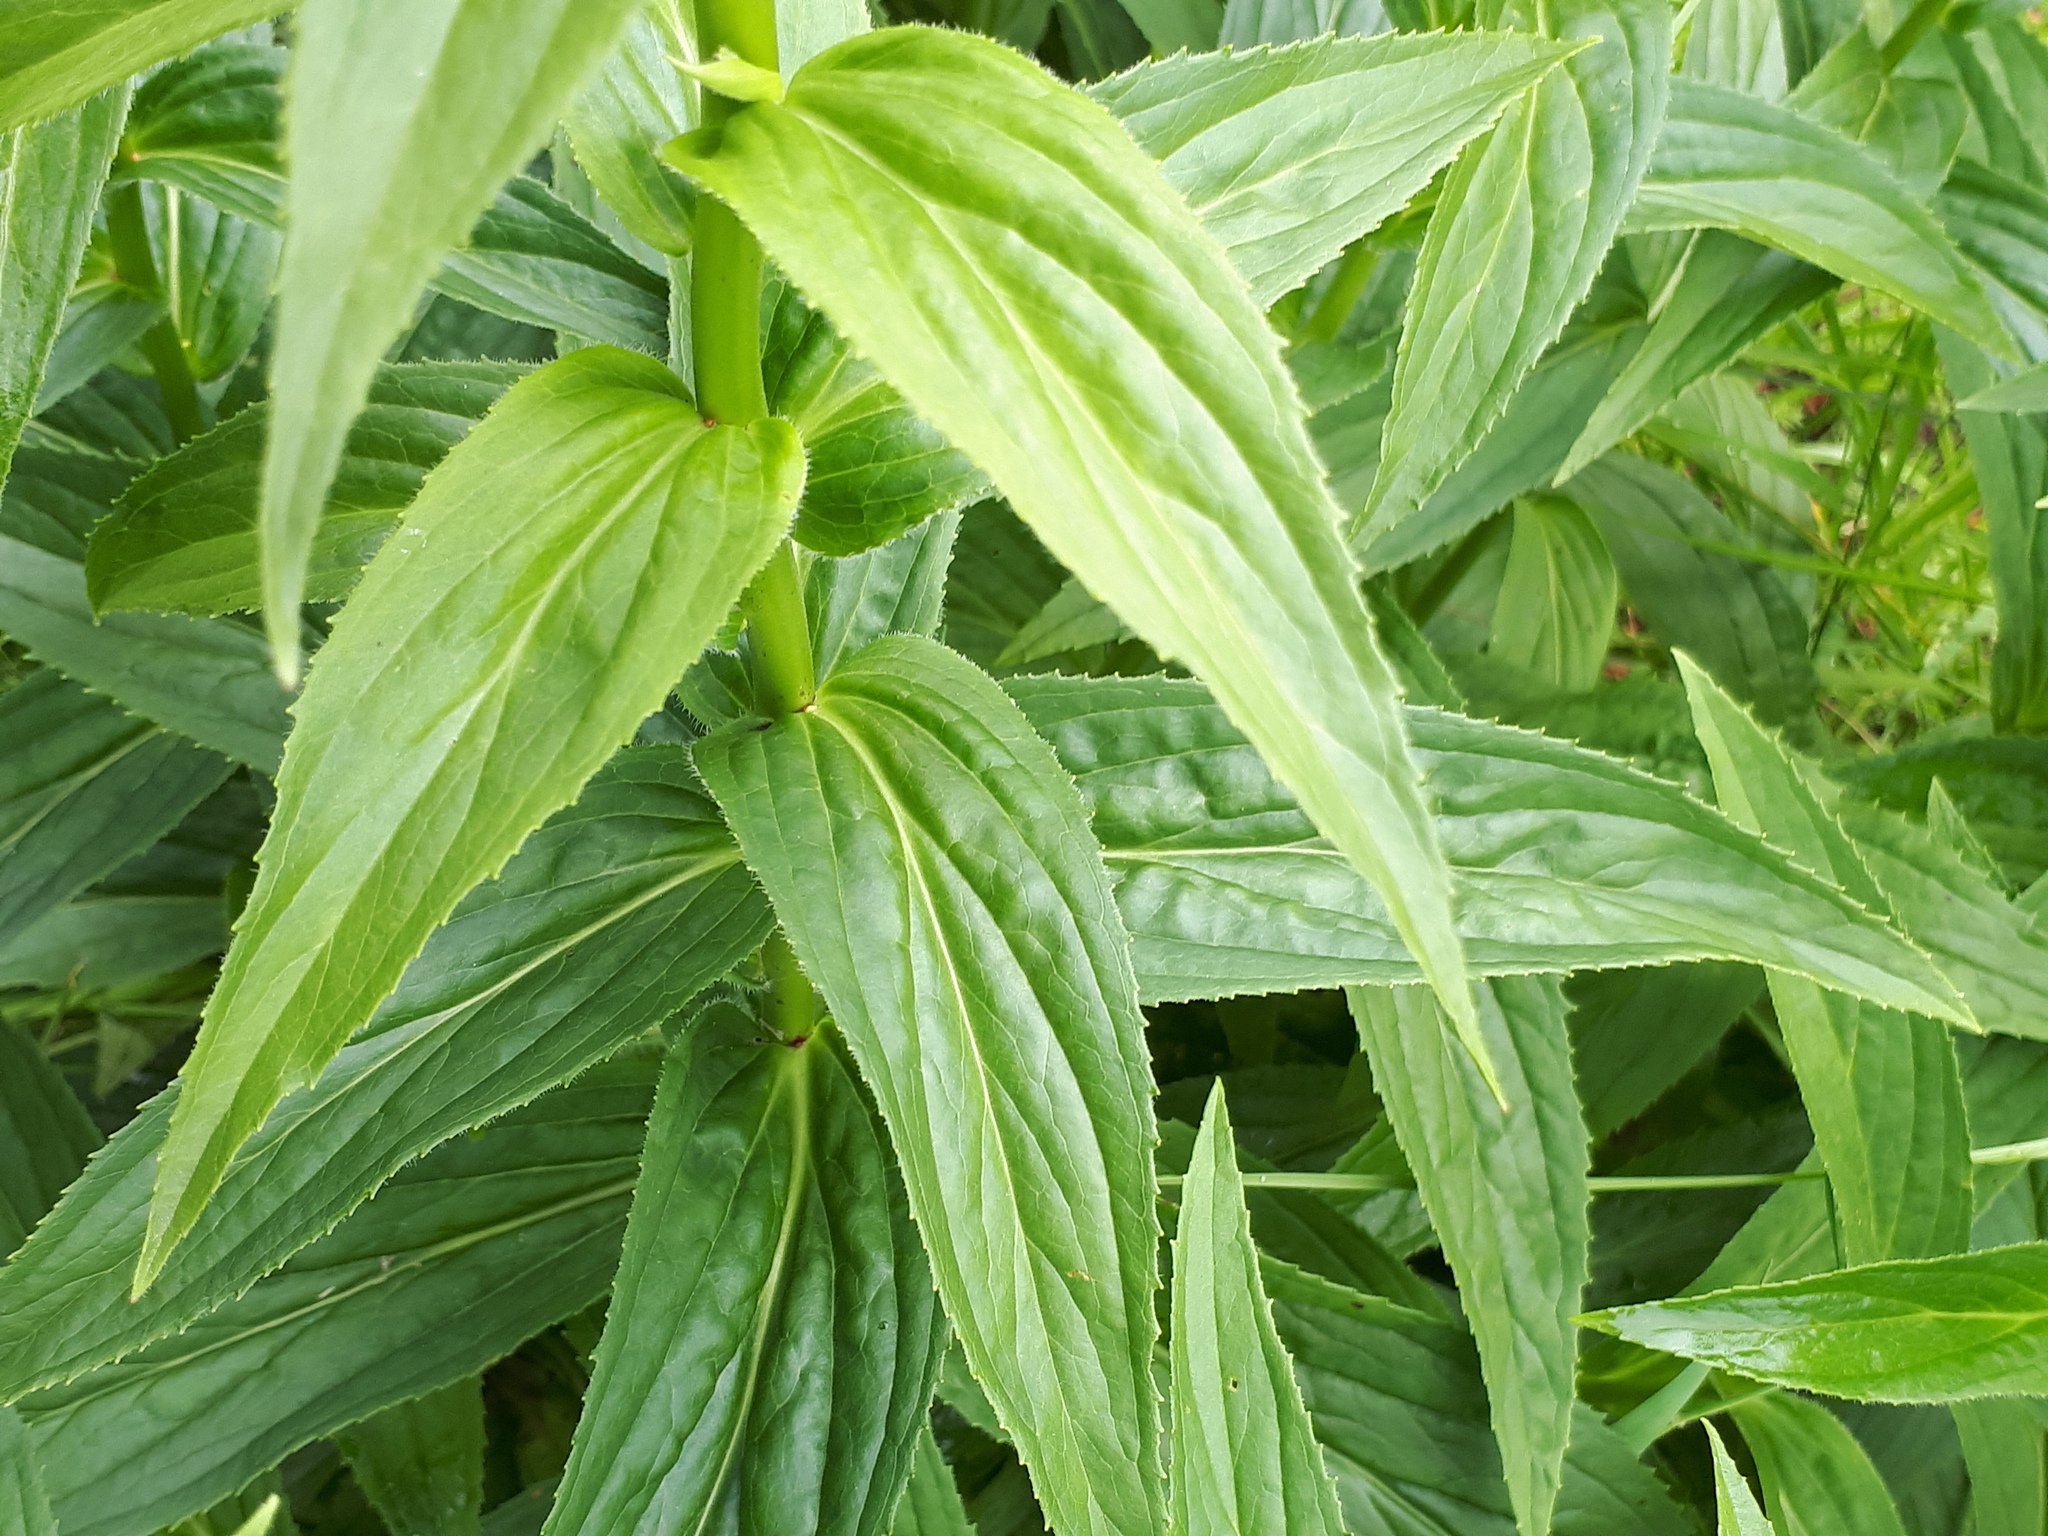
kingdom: Plantae
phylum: Tracheophyta
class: Magnoliopsida
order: Lamiales
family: Plantaginaceae
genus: Digitalis
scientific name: Digitalis grandiflora
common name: Yellow foxglove
